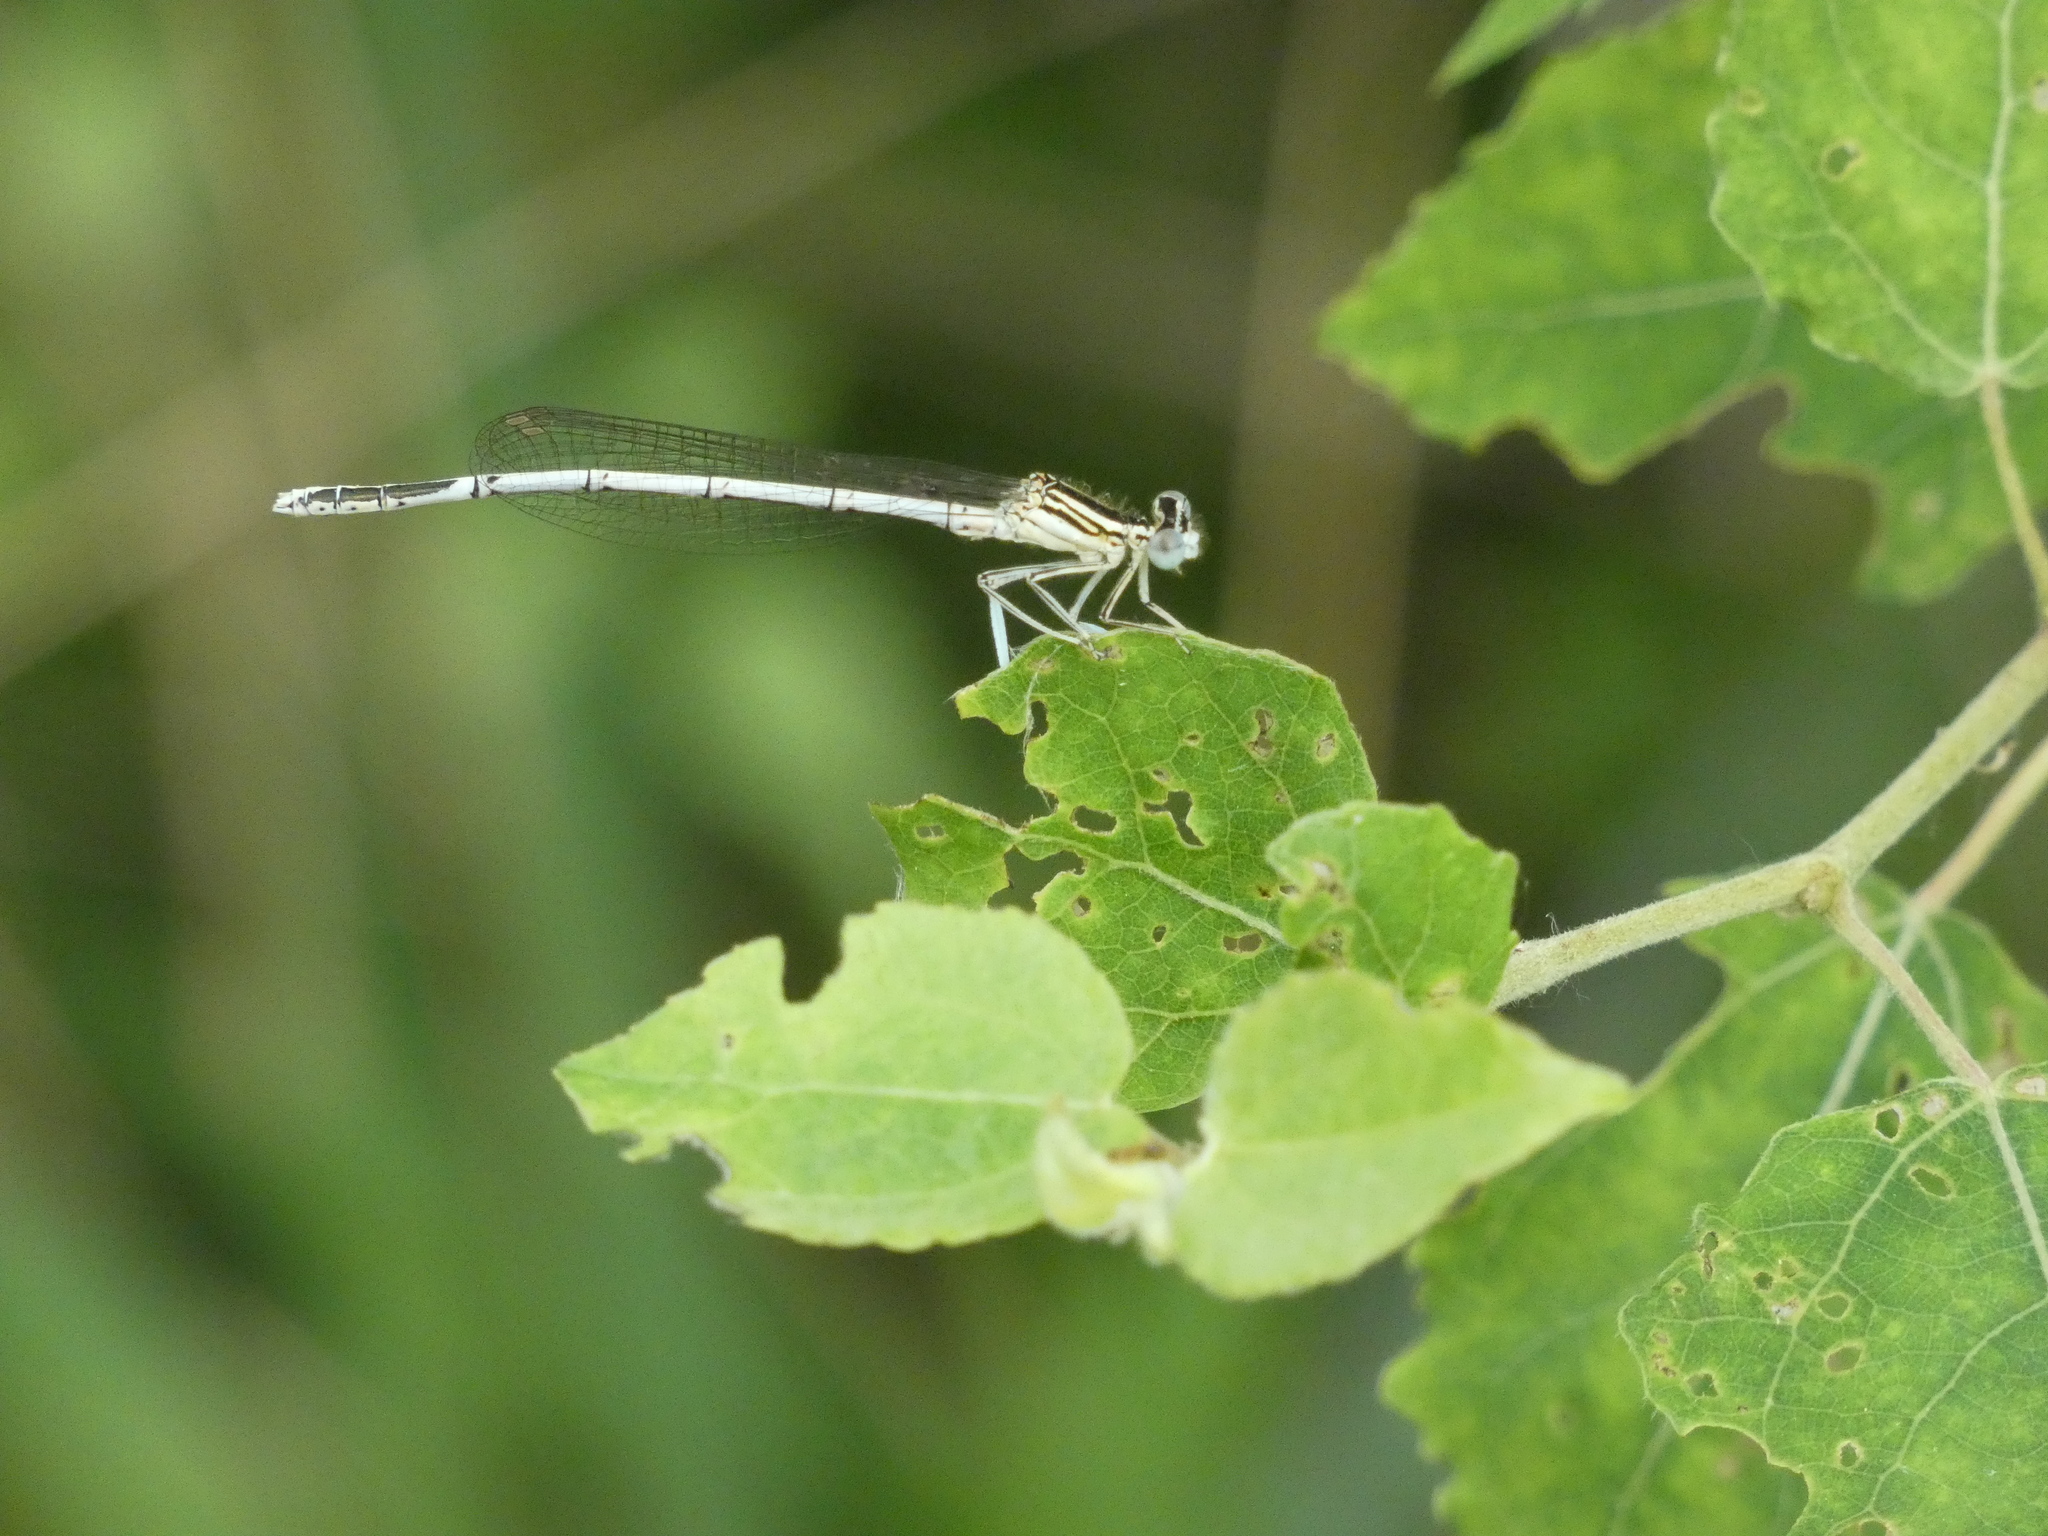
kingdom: Animalia
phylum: Arthropoda
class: Insecta
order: Odonata
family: Platycnemididae
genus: Platycnemis
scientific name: Platycnemis pennipes
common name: White-legged damselfly
